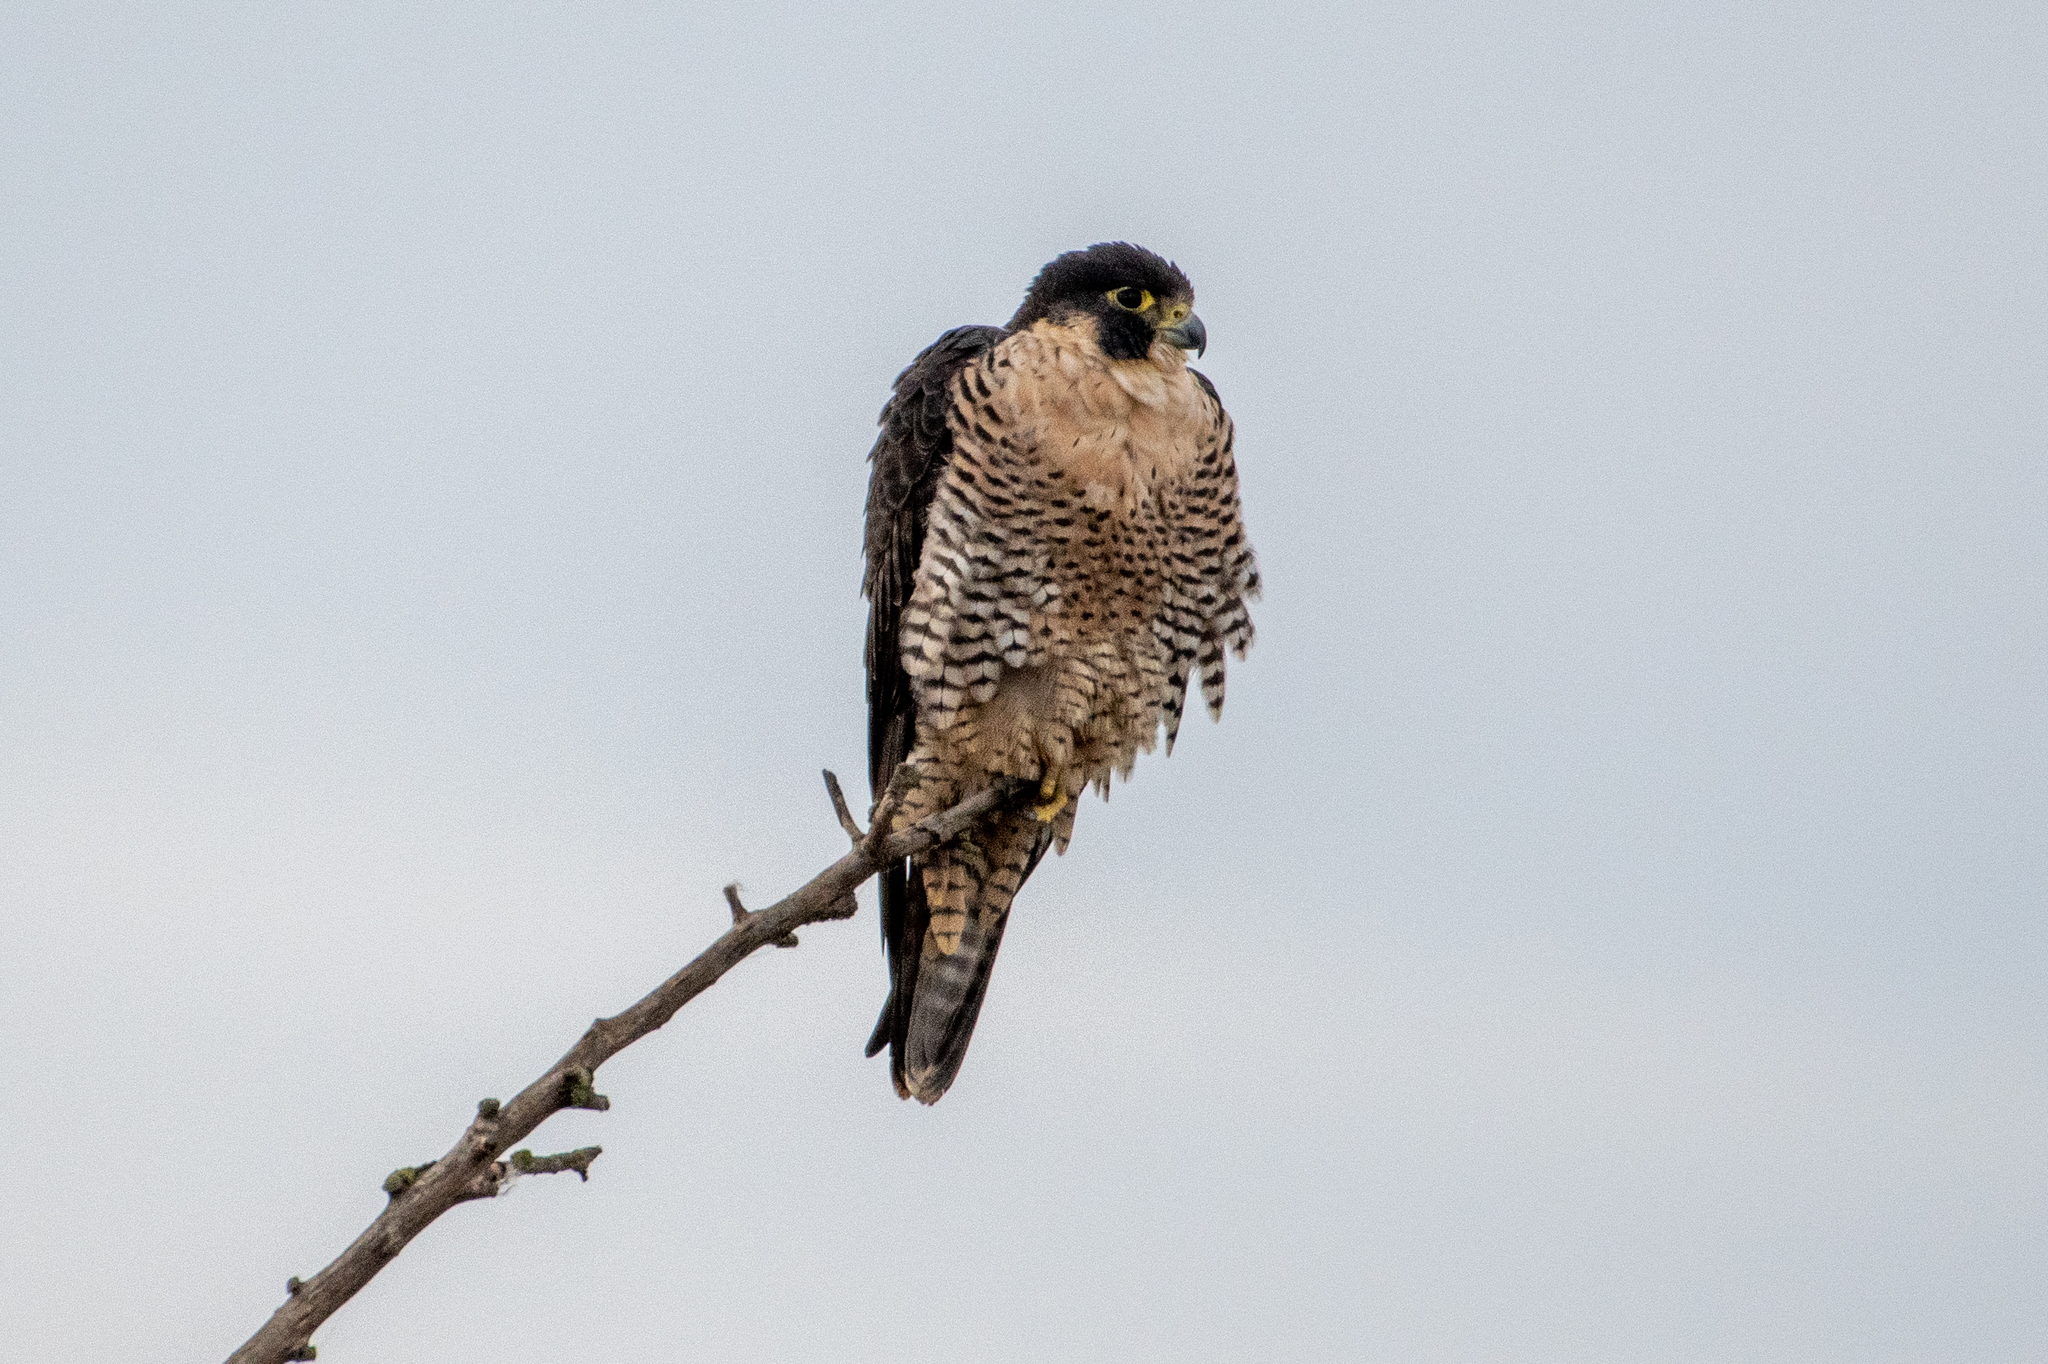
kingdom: Animalia
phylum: Chordata
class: Aves
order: Falconiformes
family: Falconidae
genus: Falco
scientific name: Falco peregrinus
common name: Peregrine falcon
